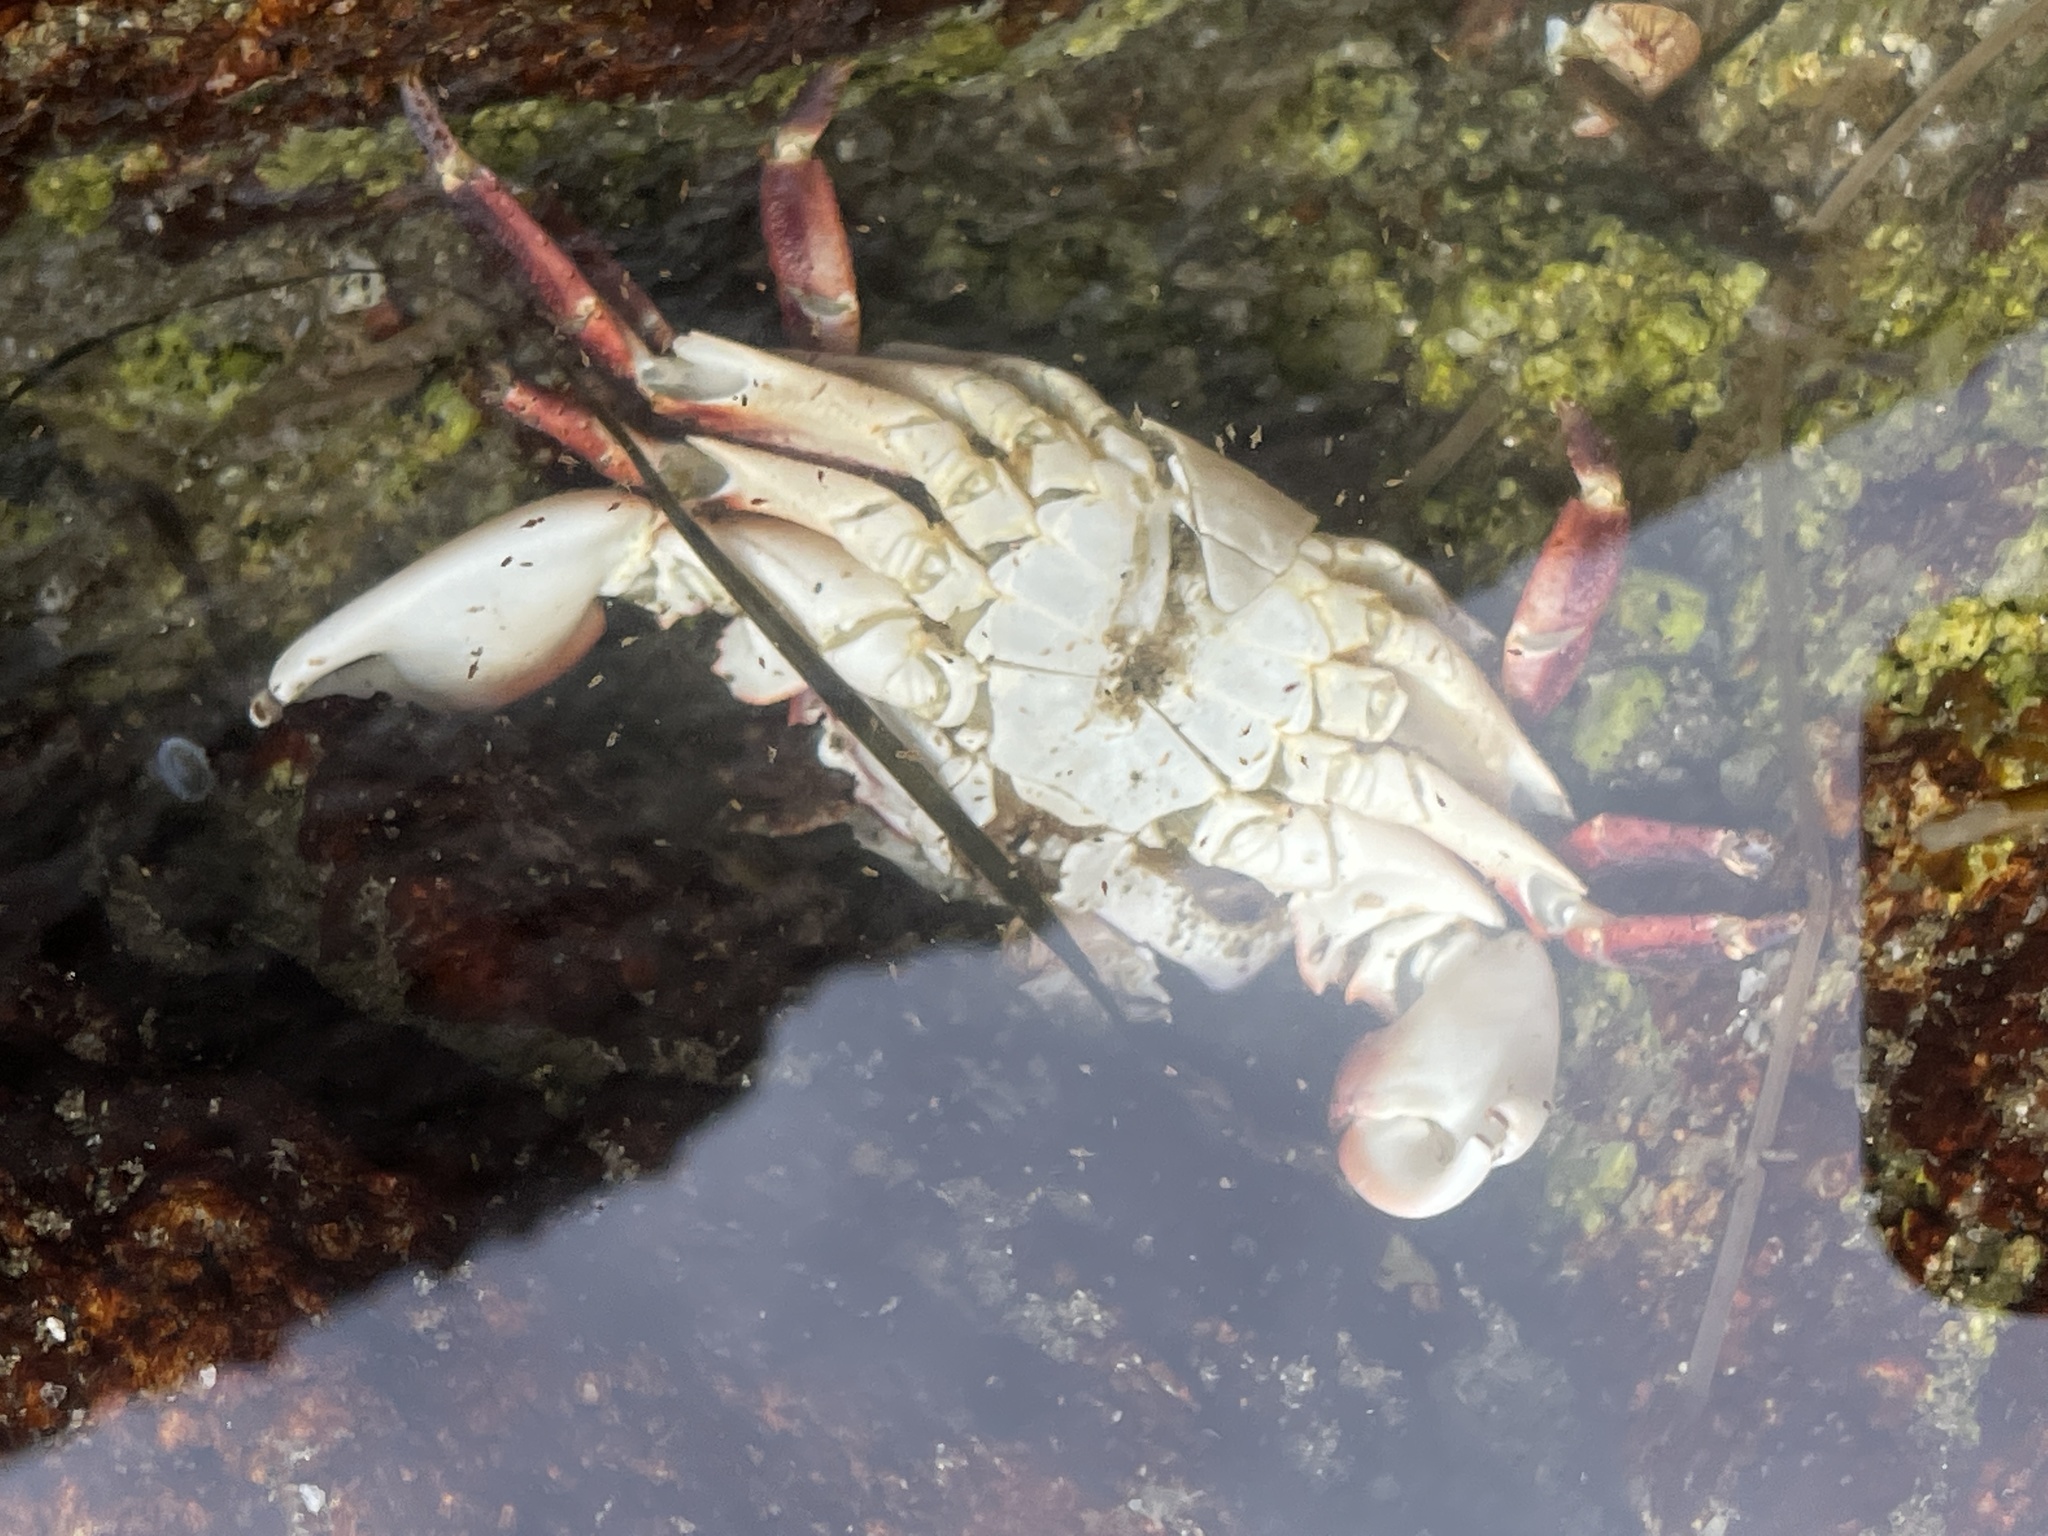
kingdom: Animalia
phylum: Arthropoda
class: Malacostraca
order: Decapoda
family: Grapsidae
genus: Pachygrapsus
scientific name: Pachygrapsus crassipes
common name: Striped shore crab
